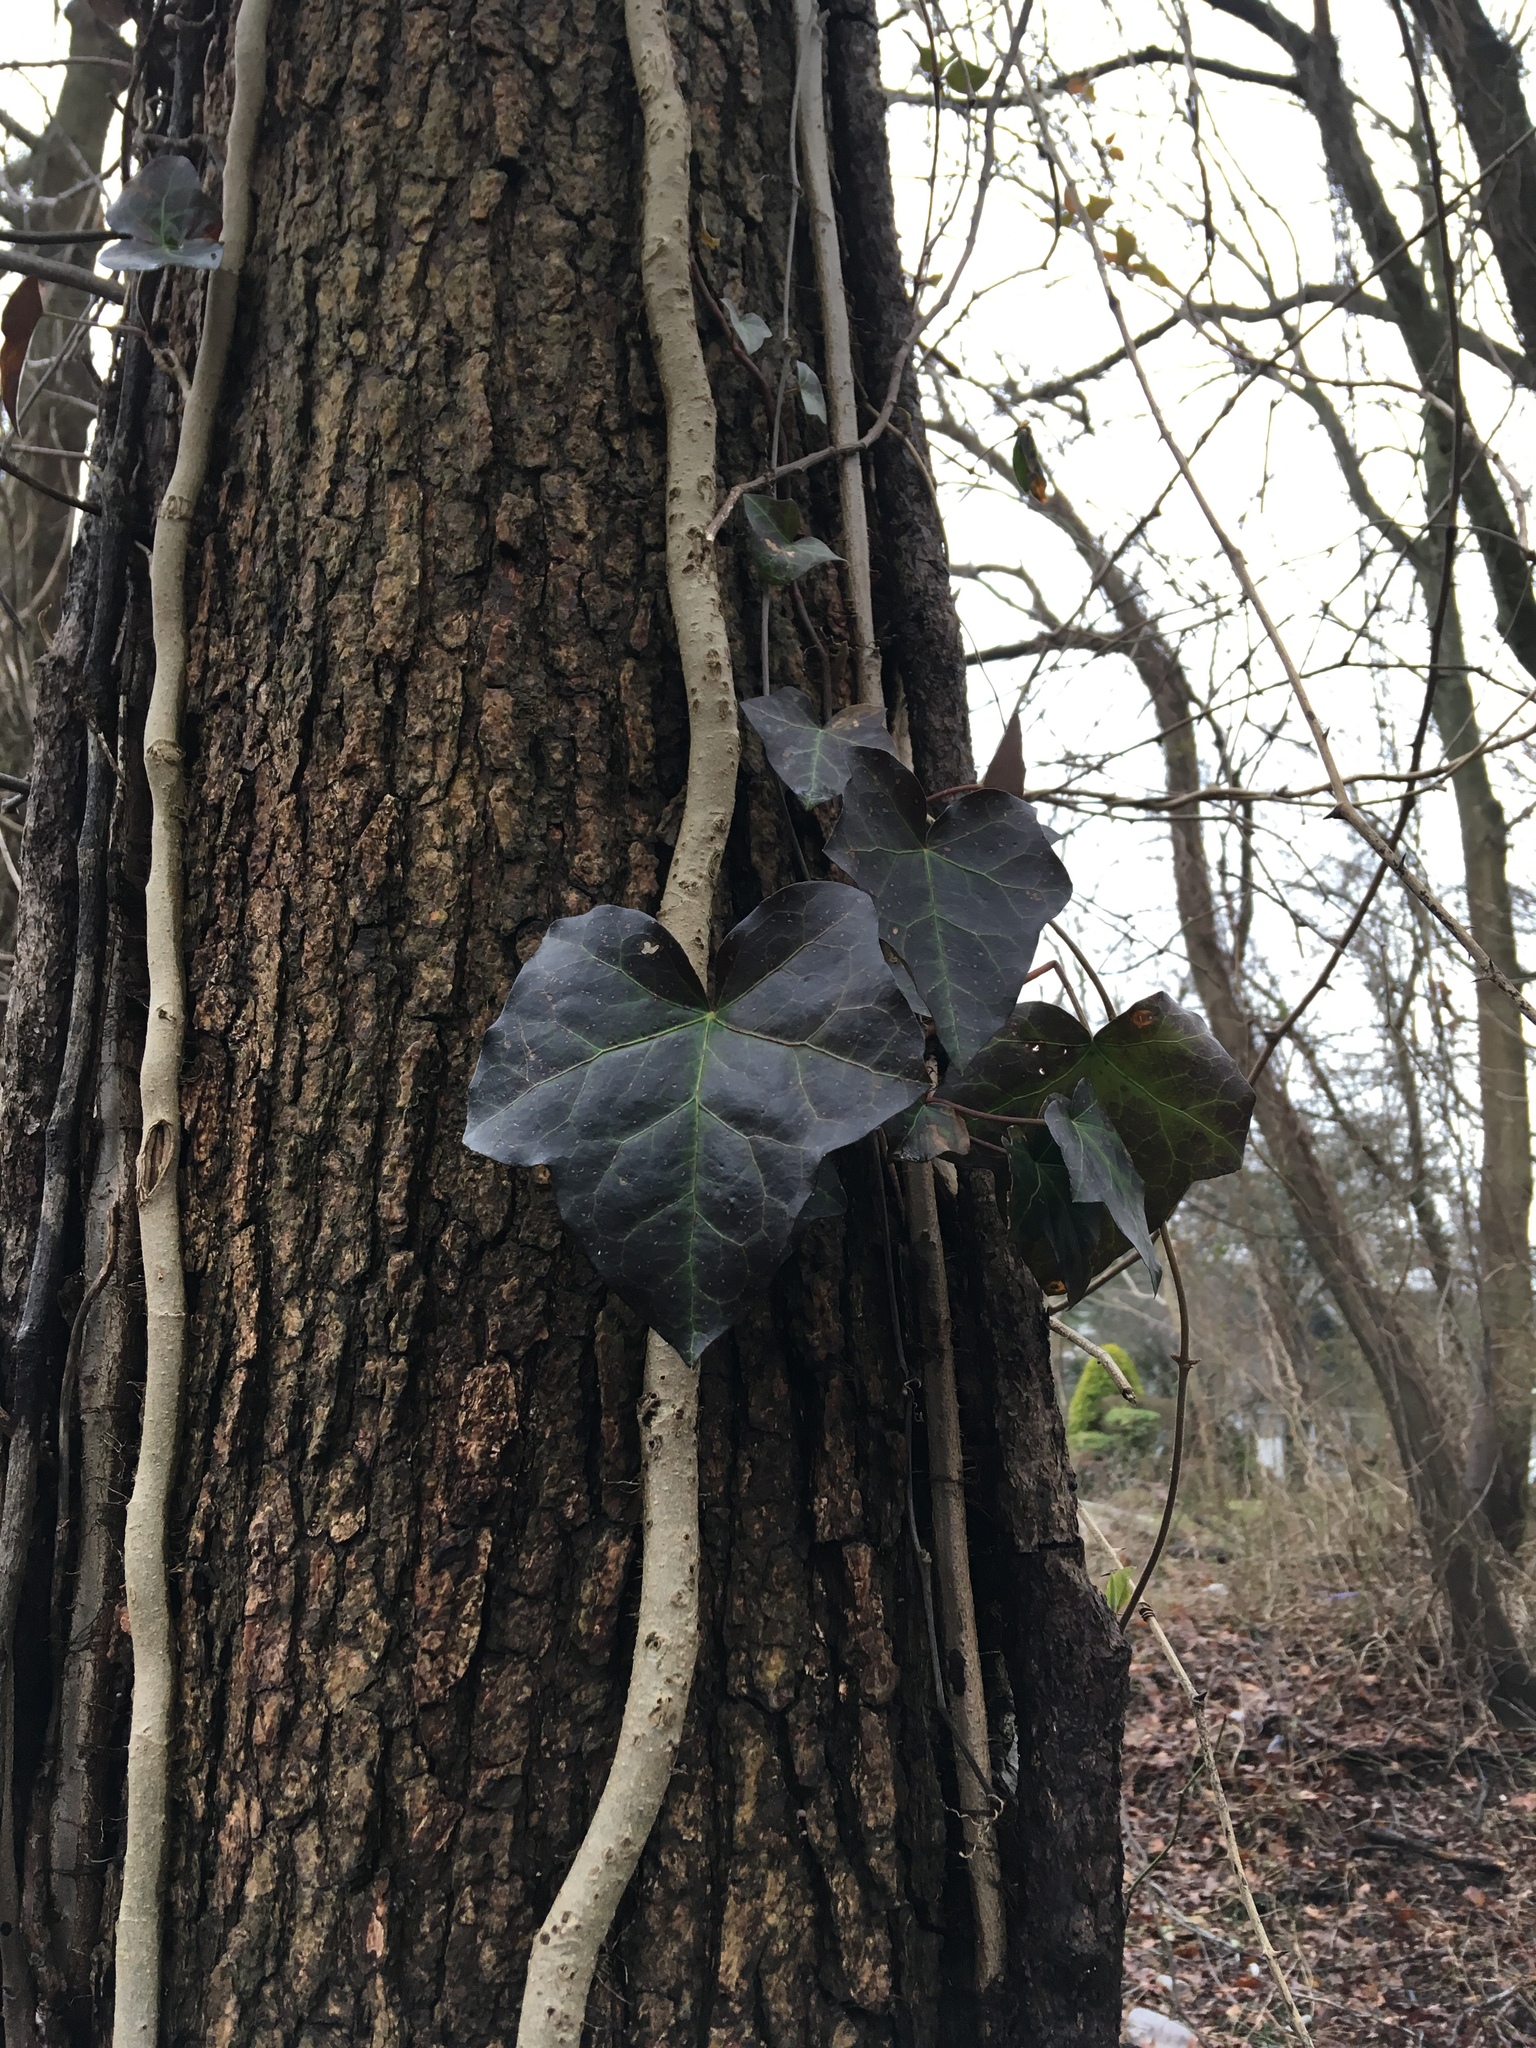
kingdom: Plantae
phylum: Tracheophyta
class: Magnoliopsida
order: Apiales
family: Araliaceae
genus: Hedera
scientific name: Hedera helix
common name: Ivy
